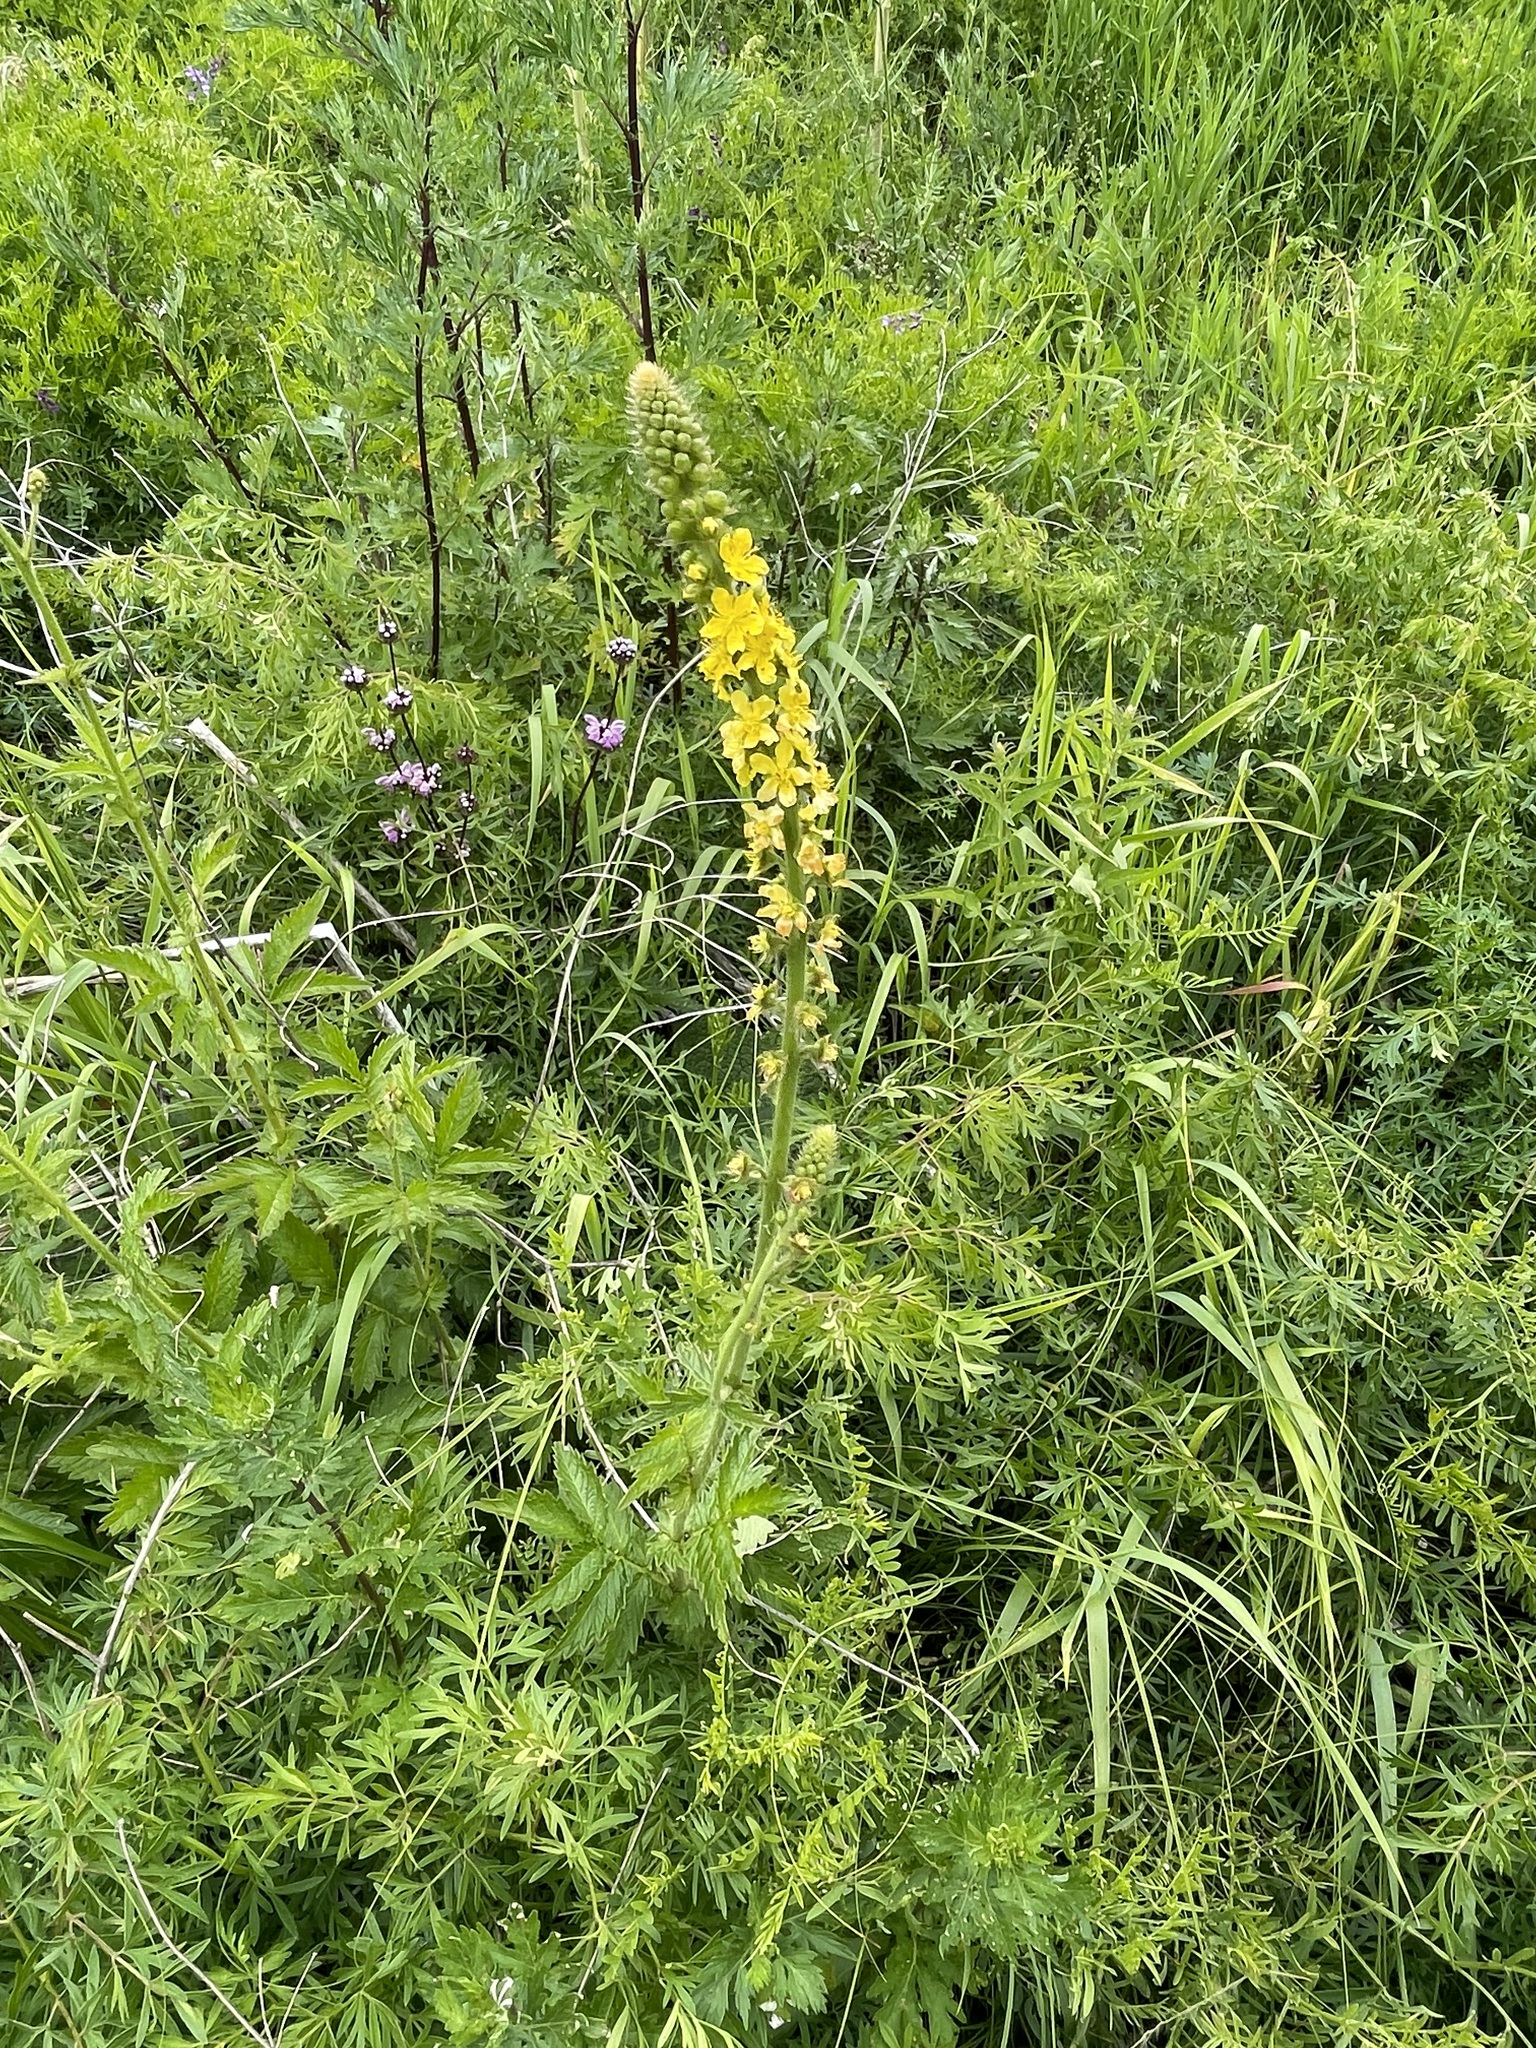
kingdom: Plantae
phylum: Tracheophyta
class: Magnoliopsida
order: Rosales
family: Rosaceae
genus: Agrimonia
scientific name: Agrimonia eupatoria
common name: Agrimony
